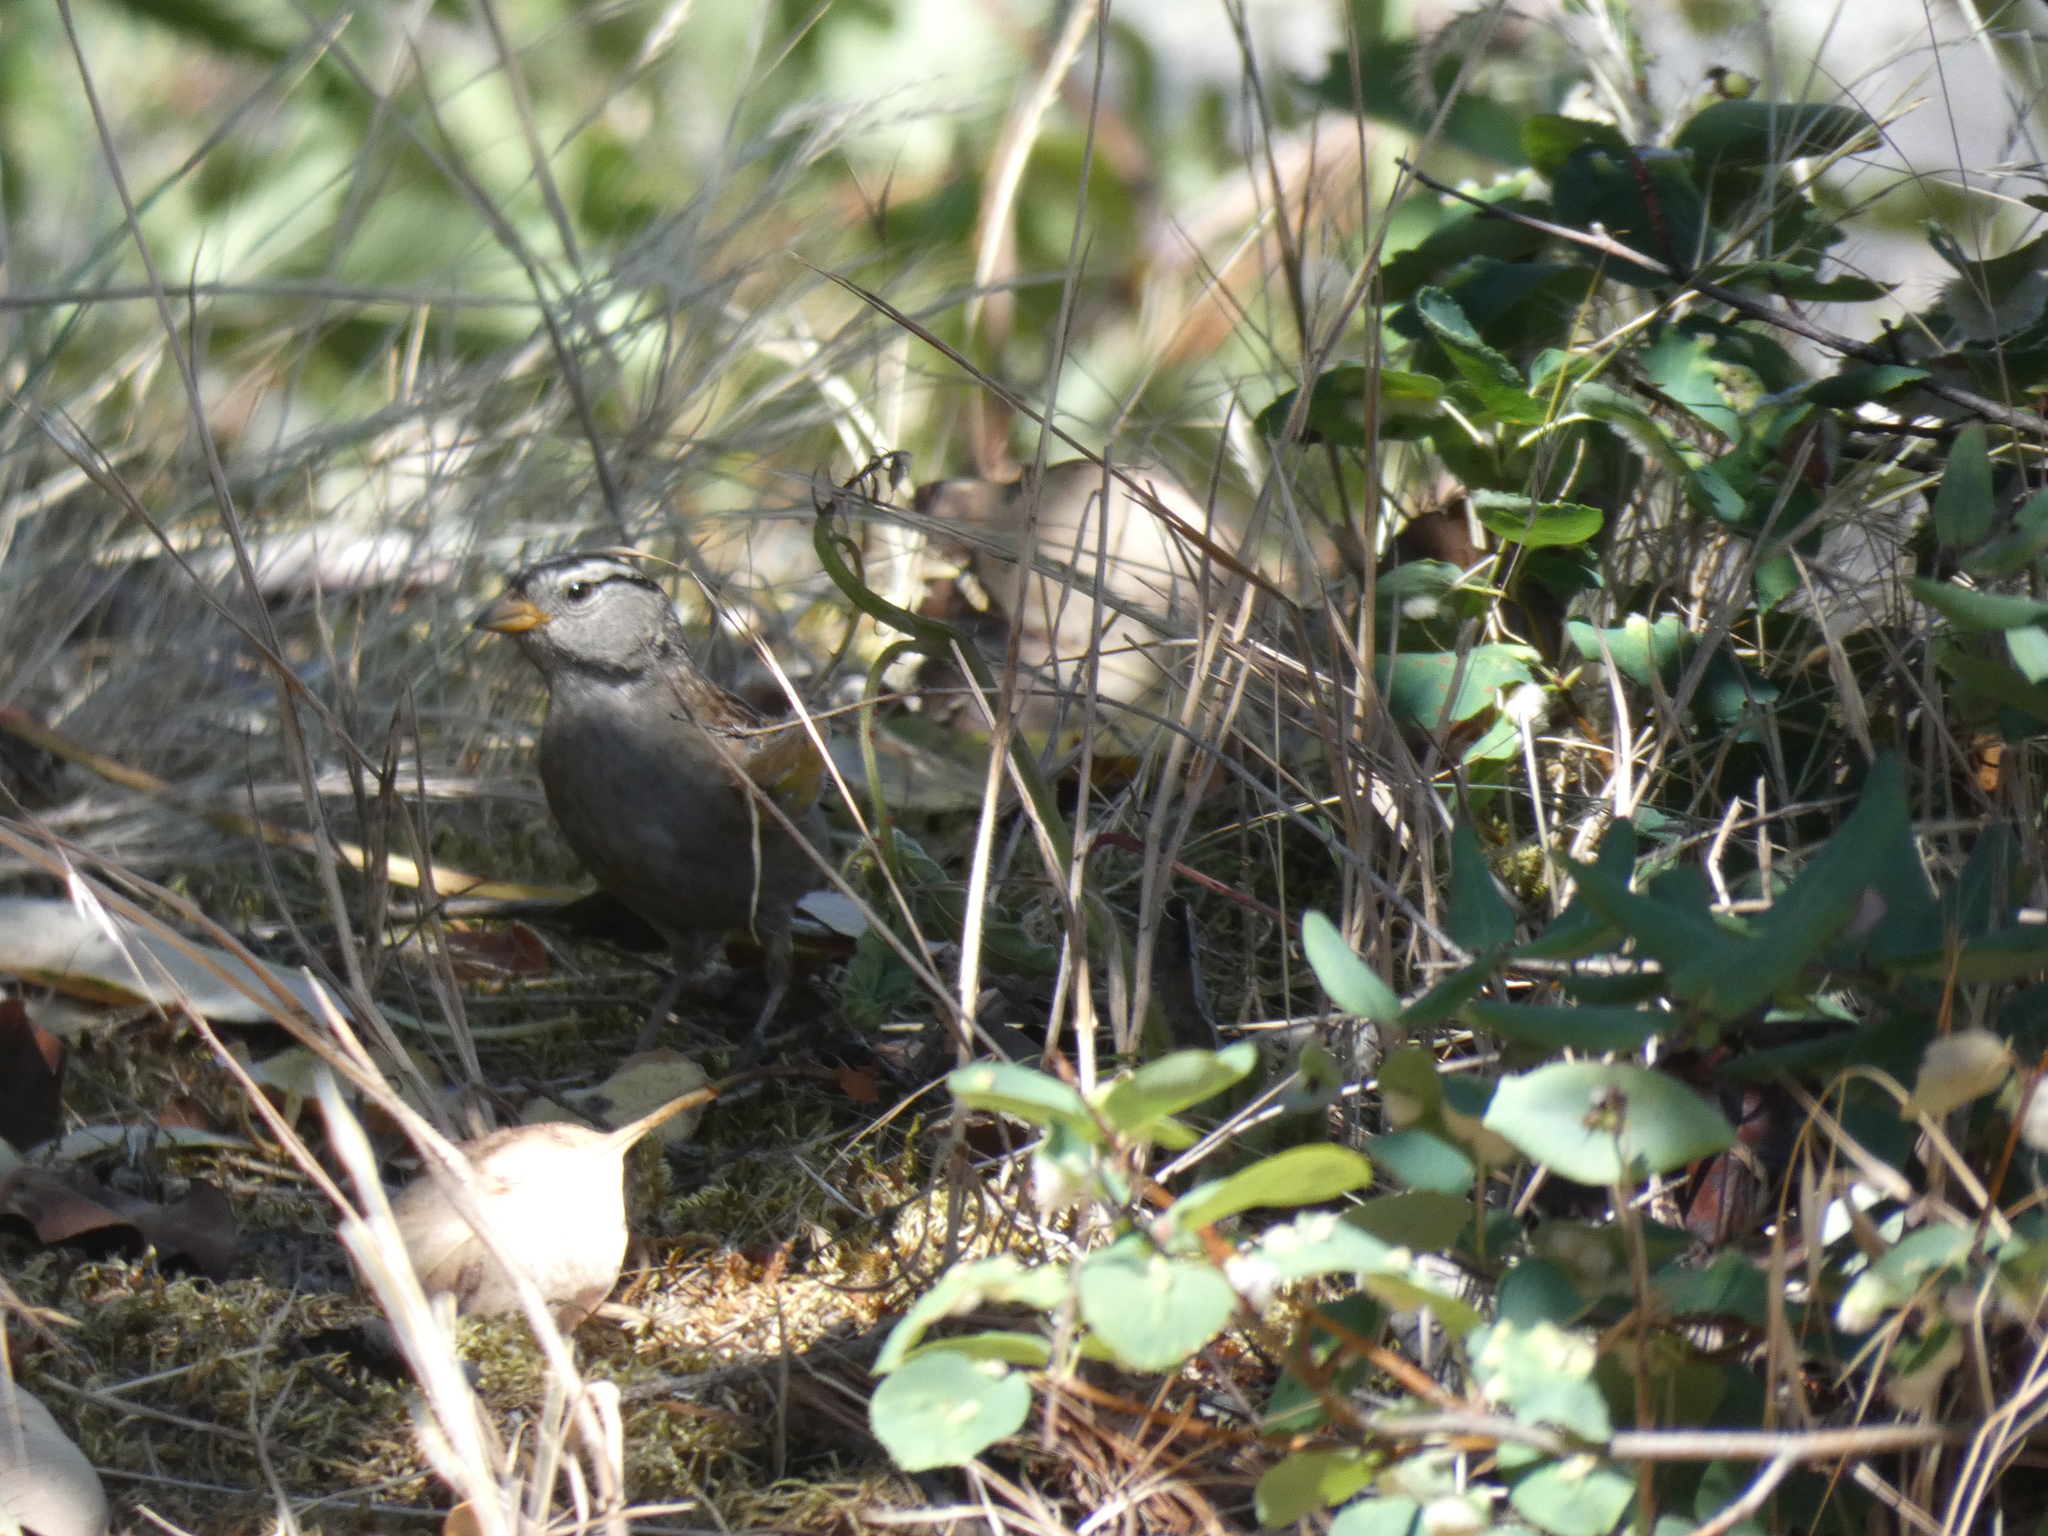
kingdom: Animalia
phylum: Chordata
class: Aves
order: Passeriformes
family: Passerellidae
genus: Zonotrichia
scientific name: Zonotrichia leucophrys
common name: White-crowned sparrow
